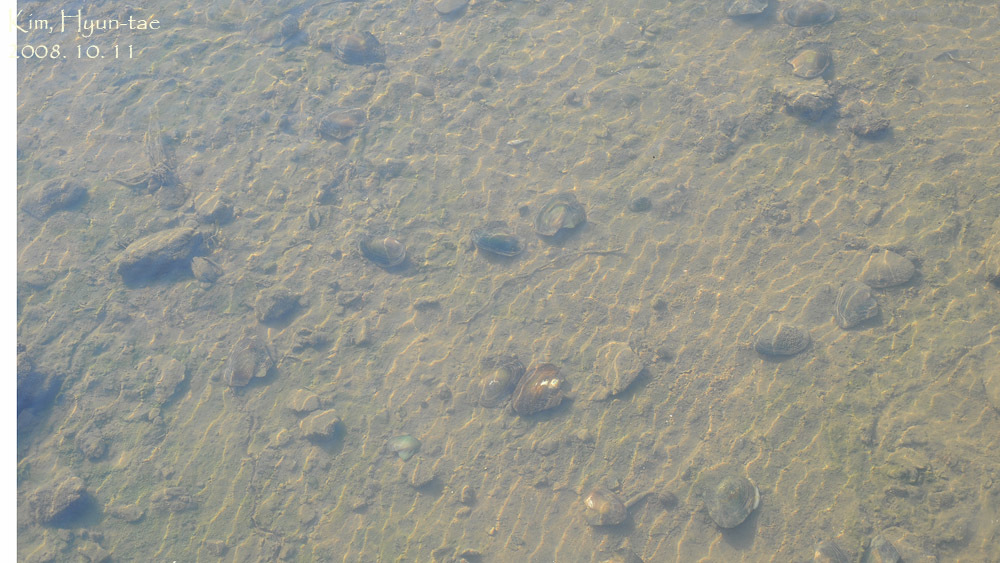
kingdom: Animalia
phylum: Mollusca
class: Bivalvia
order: Unionida
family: Unionidae
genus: Cristaria
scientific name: Cristaria plicata
